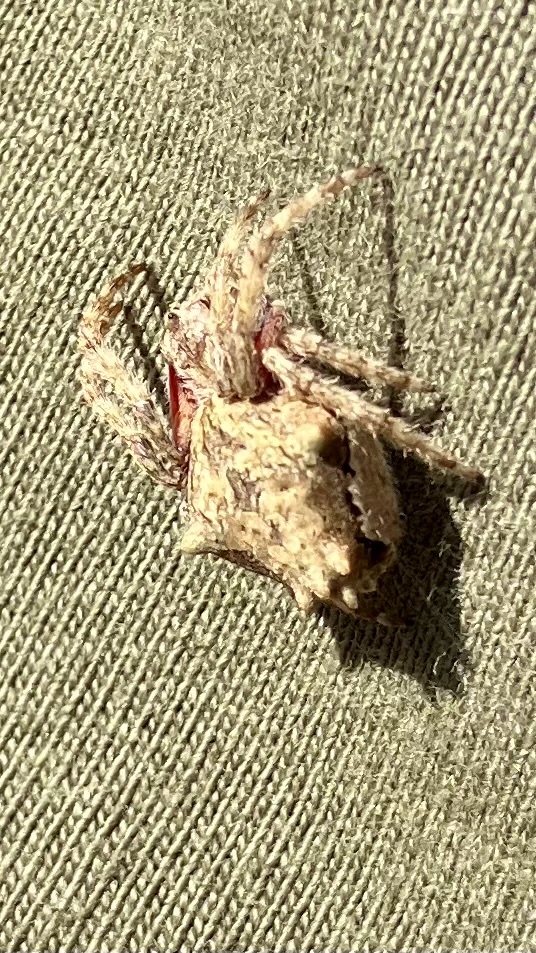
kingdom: Animalia
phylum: Arthropoda
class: Arachnida
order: Araneae
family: Araneidae
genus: Eriophora
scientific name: Eriophora pustulosa
